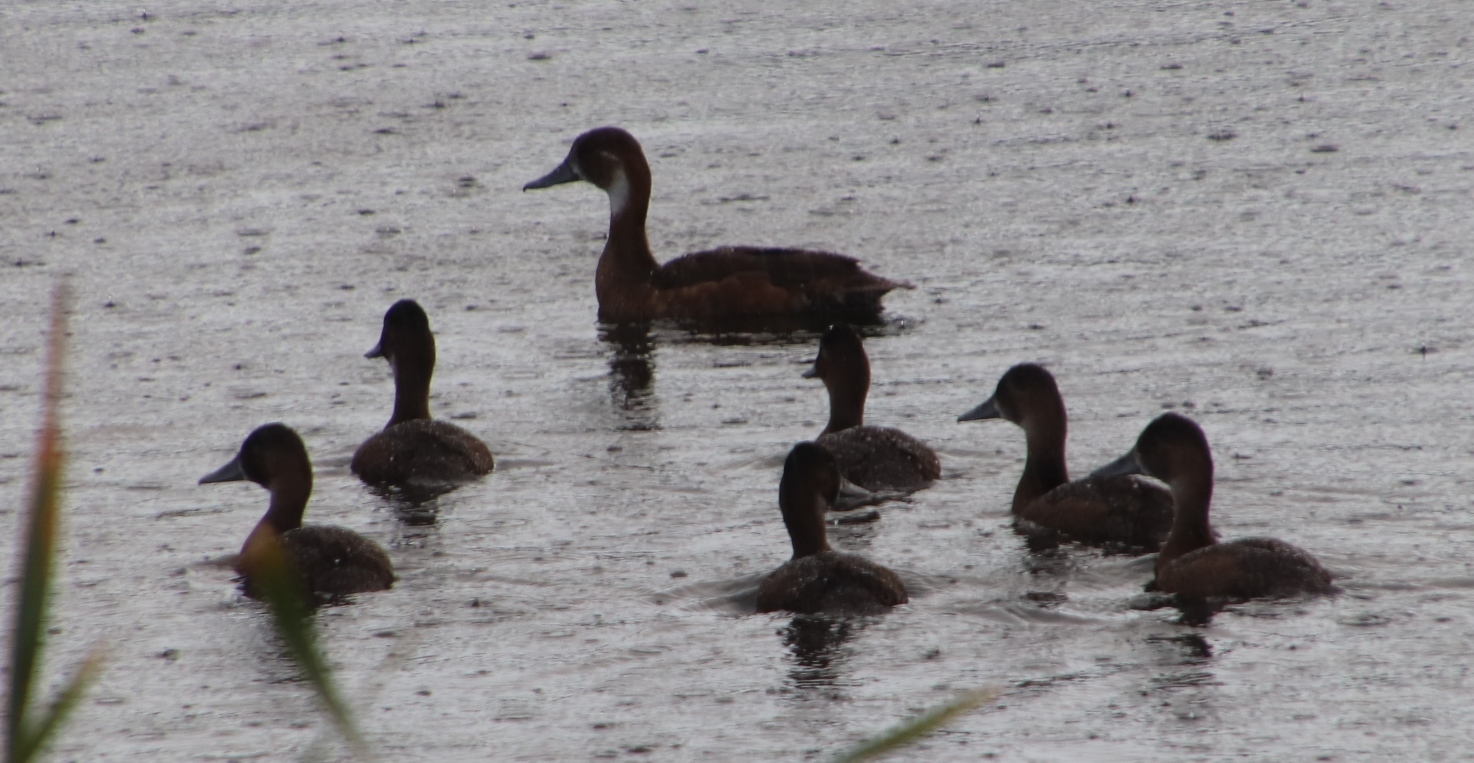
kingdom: Animalia
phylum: Chordata
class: Aves
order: Anseriformes
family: Anatidae
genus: Netta
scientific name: Netta erythrophthalma
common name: Southern pochard
